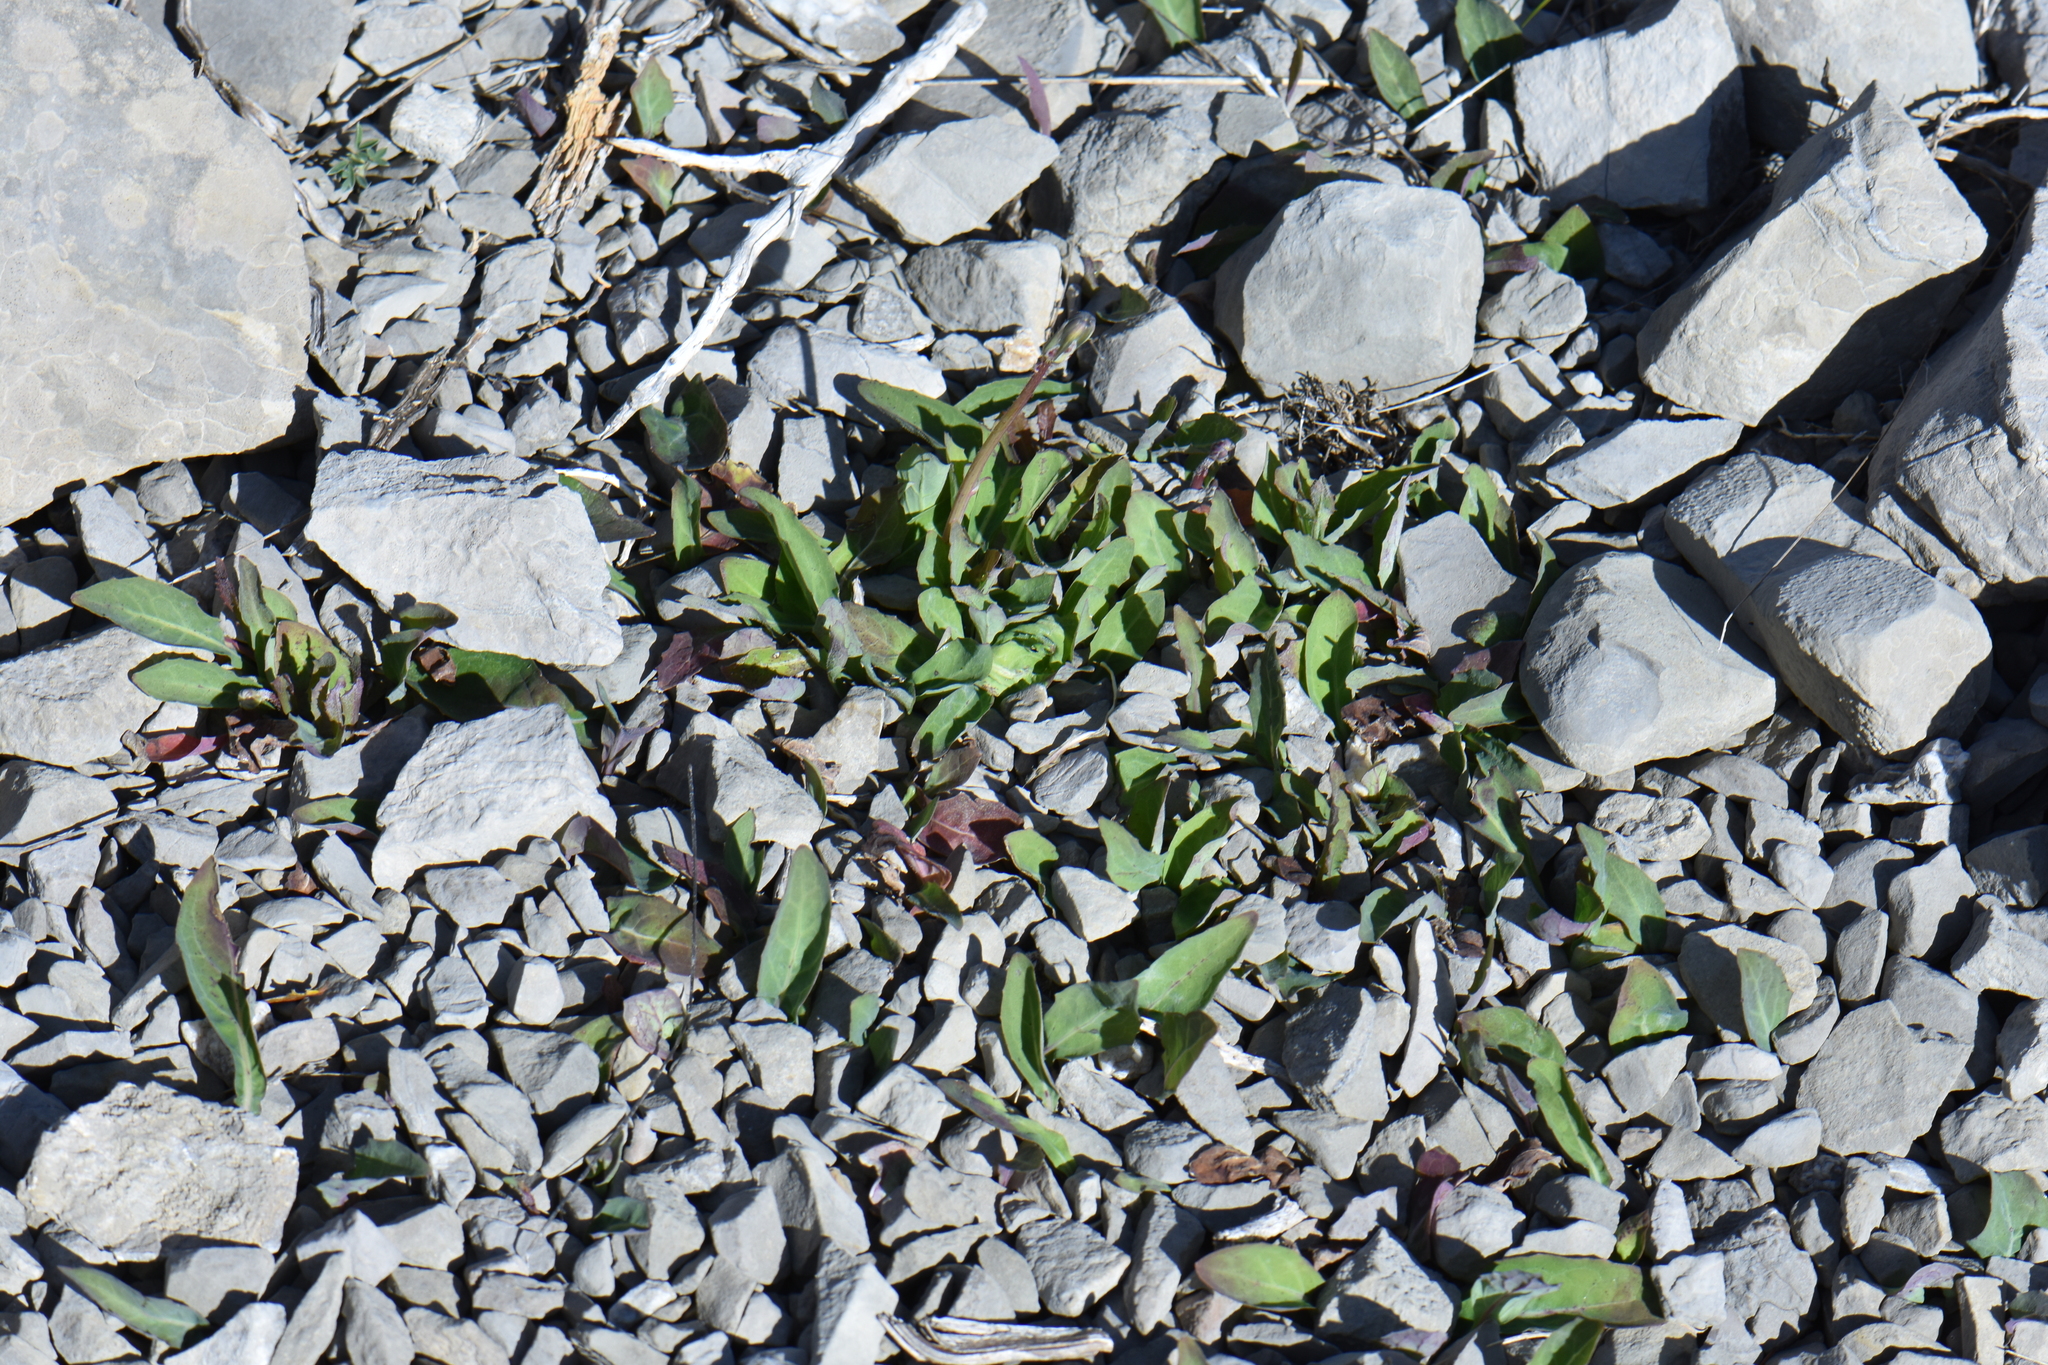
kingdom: Plantae
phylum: Tracheophyta
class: Magnoliopsida
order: Asterales
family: Asteraceae
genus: Aetheorhiza
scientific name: Aetheorhiza bulbosa
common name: Tuberous hawk's-beard
